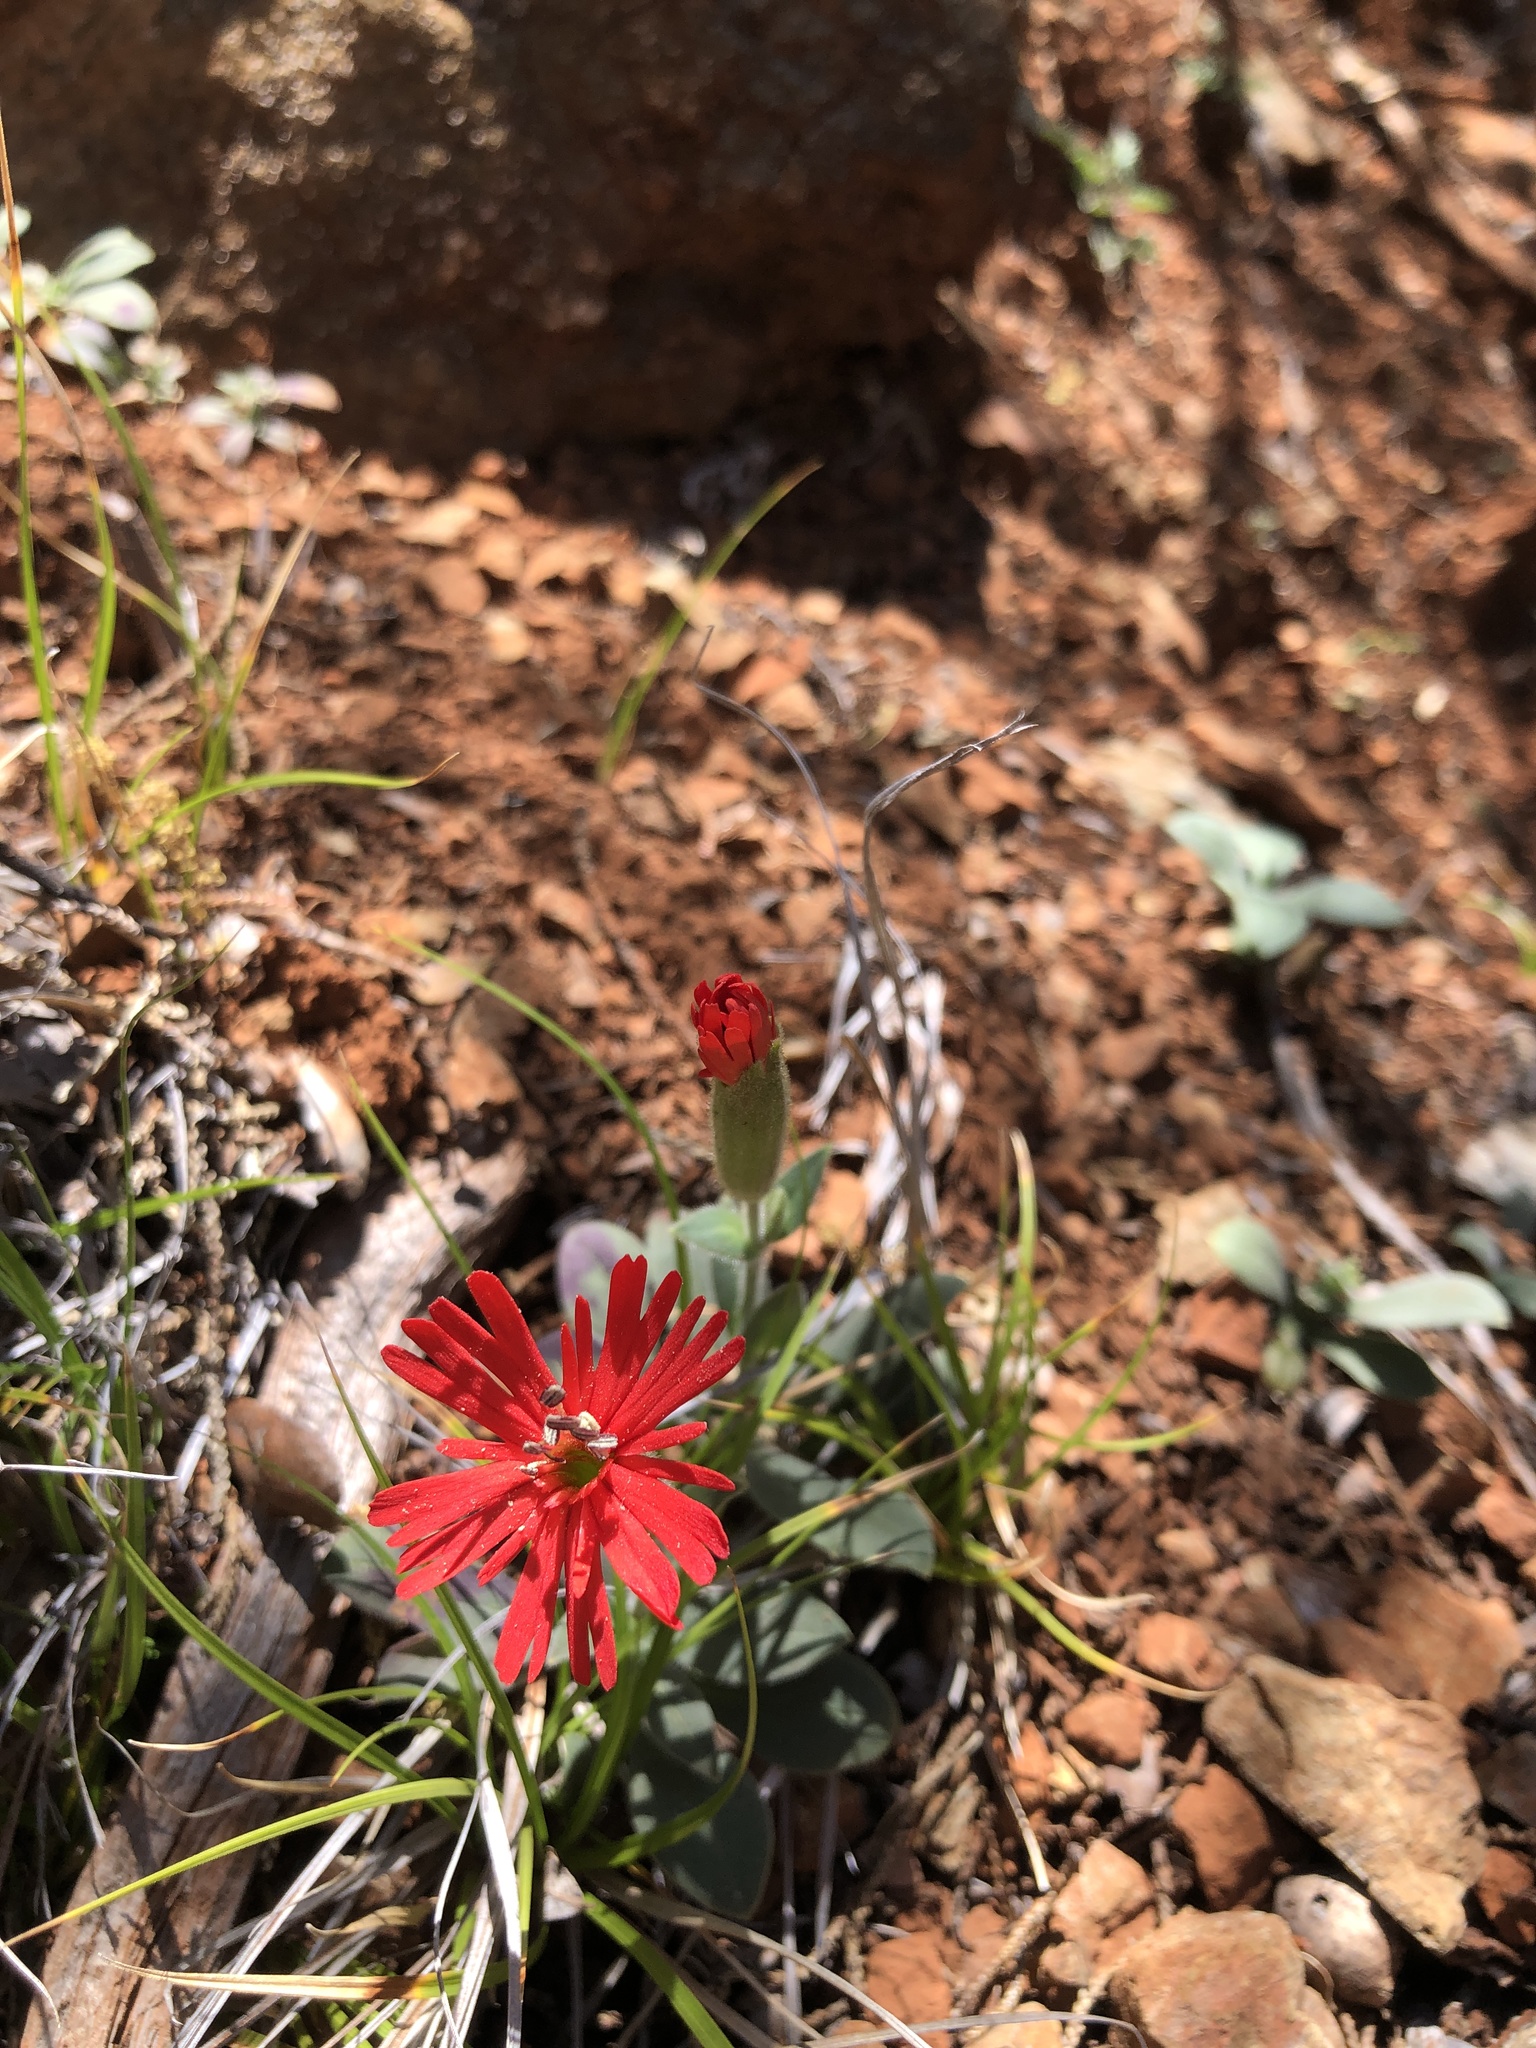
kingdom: Plantae
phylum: Tracheophyta
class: Magnoliopsida
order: Caryophyllales
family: Caryophyllaceae
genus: Silene
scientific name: Silene laciniata
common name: Indian-pink
